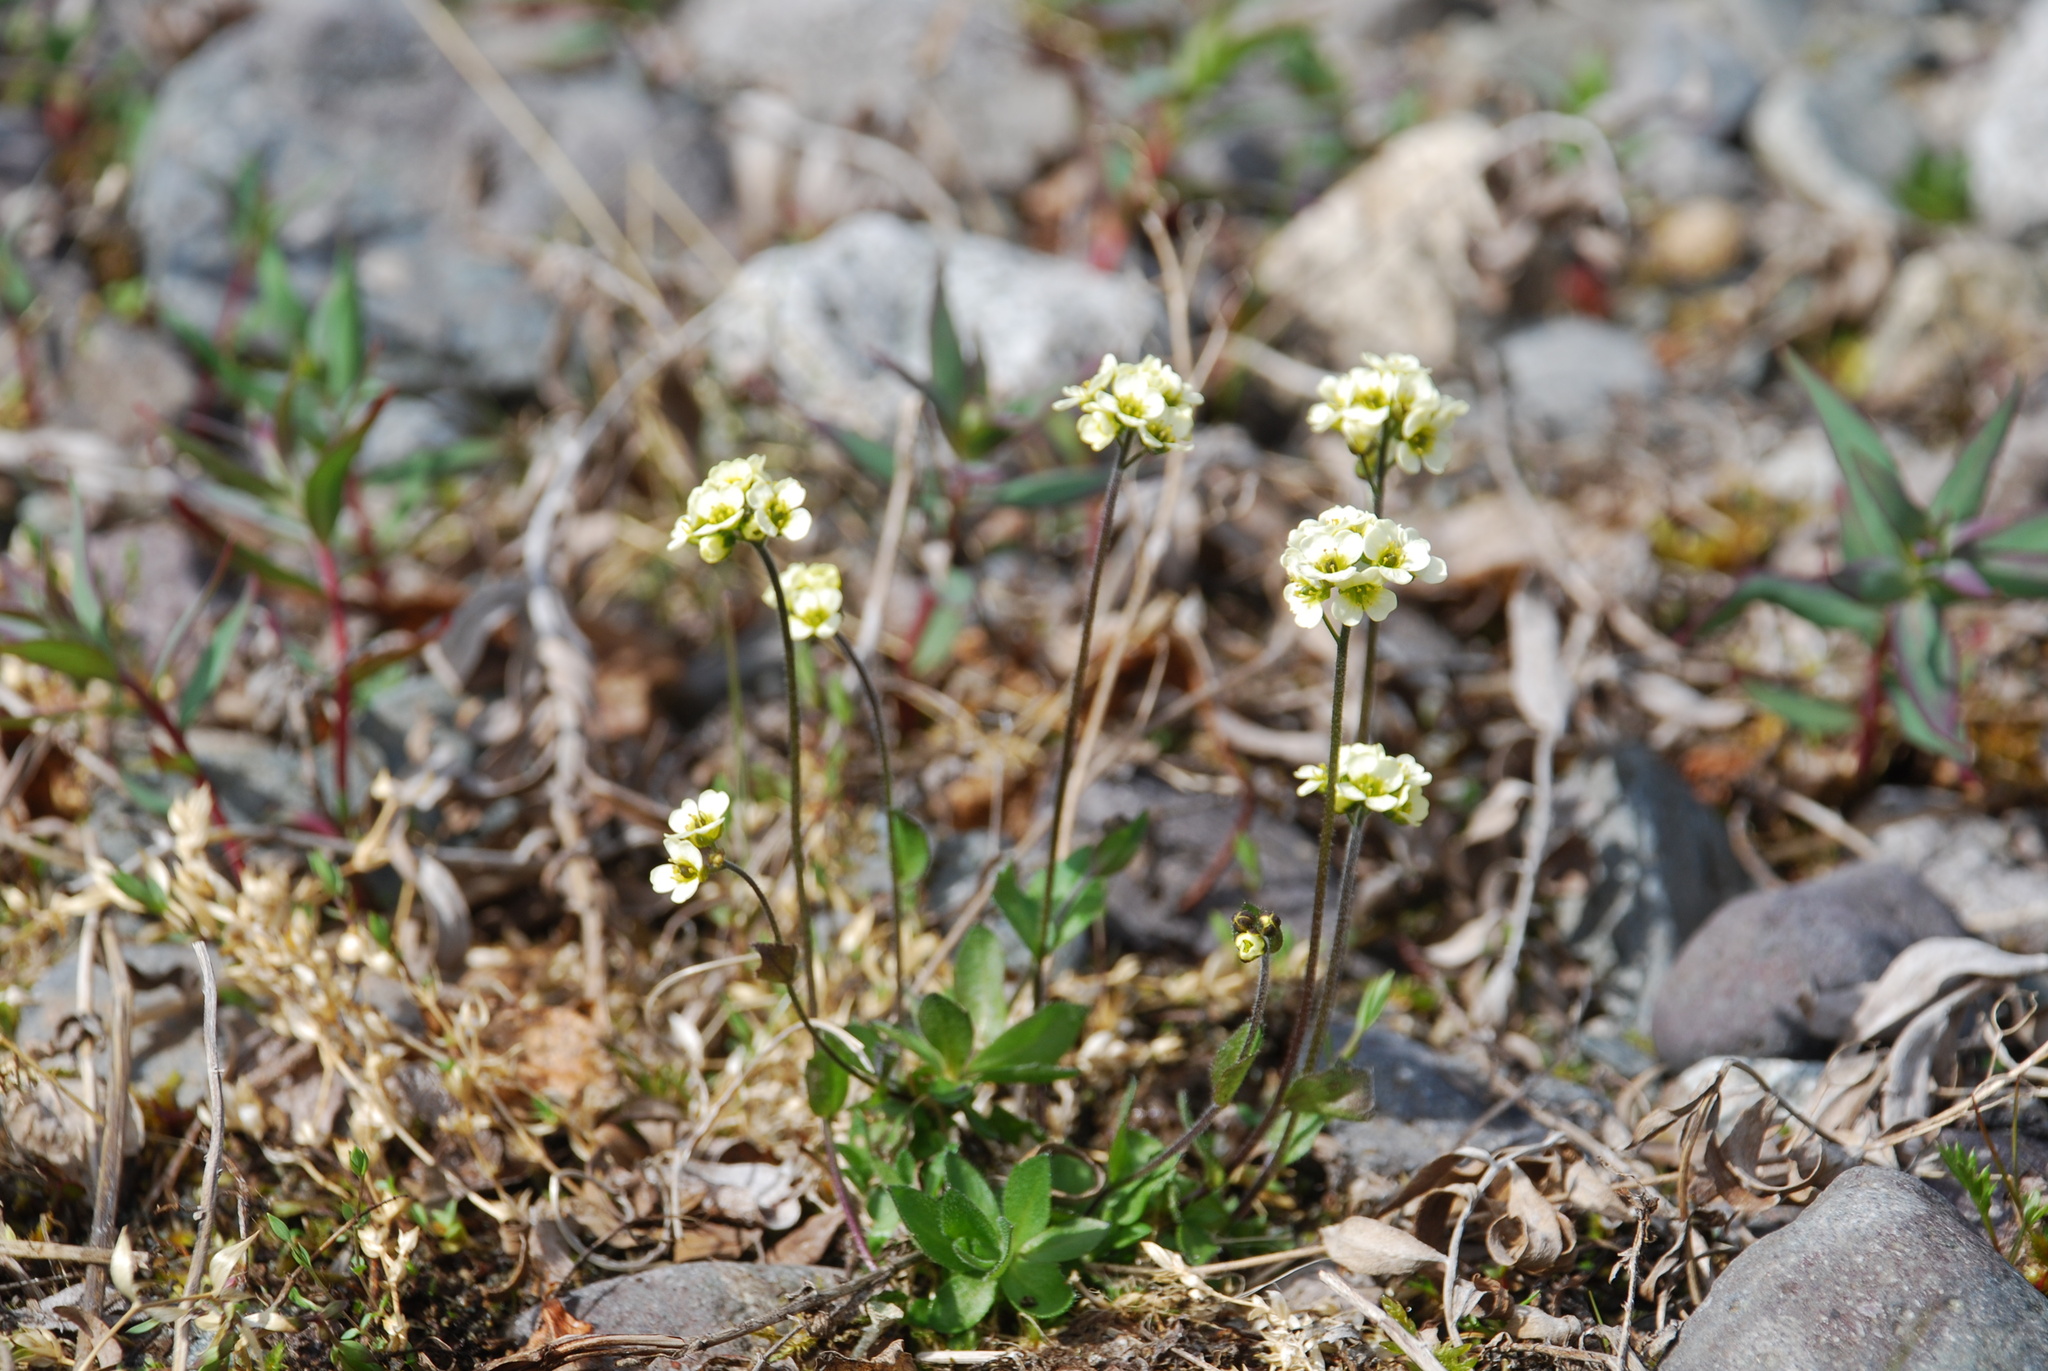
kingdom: Plantae
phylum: Tracheophyta
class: Magnoliopsida
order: Brassicales
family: Brassicaceae
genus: Draba
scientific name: Draba juvenilis
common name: Long-stalked draba
